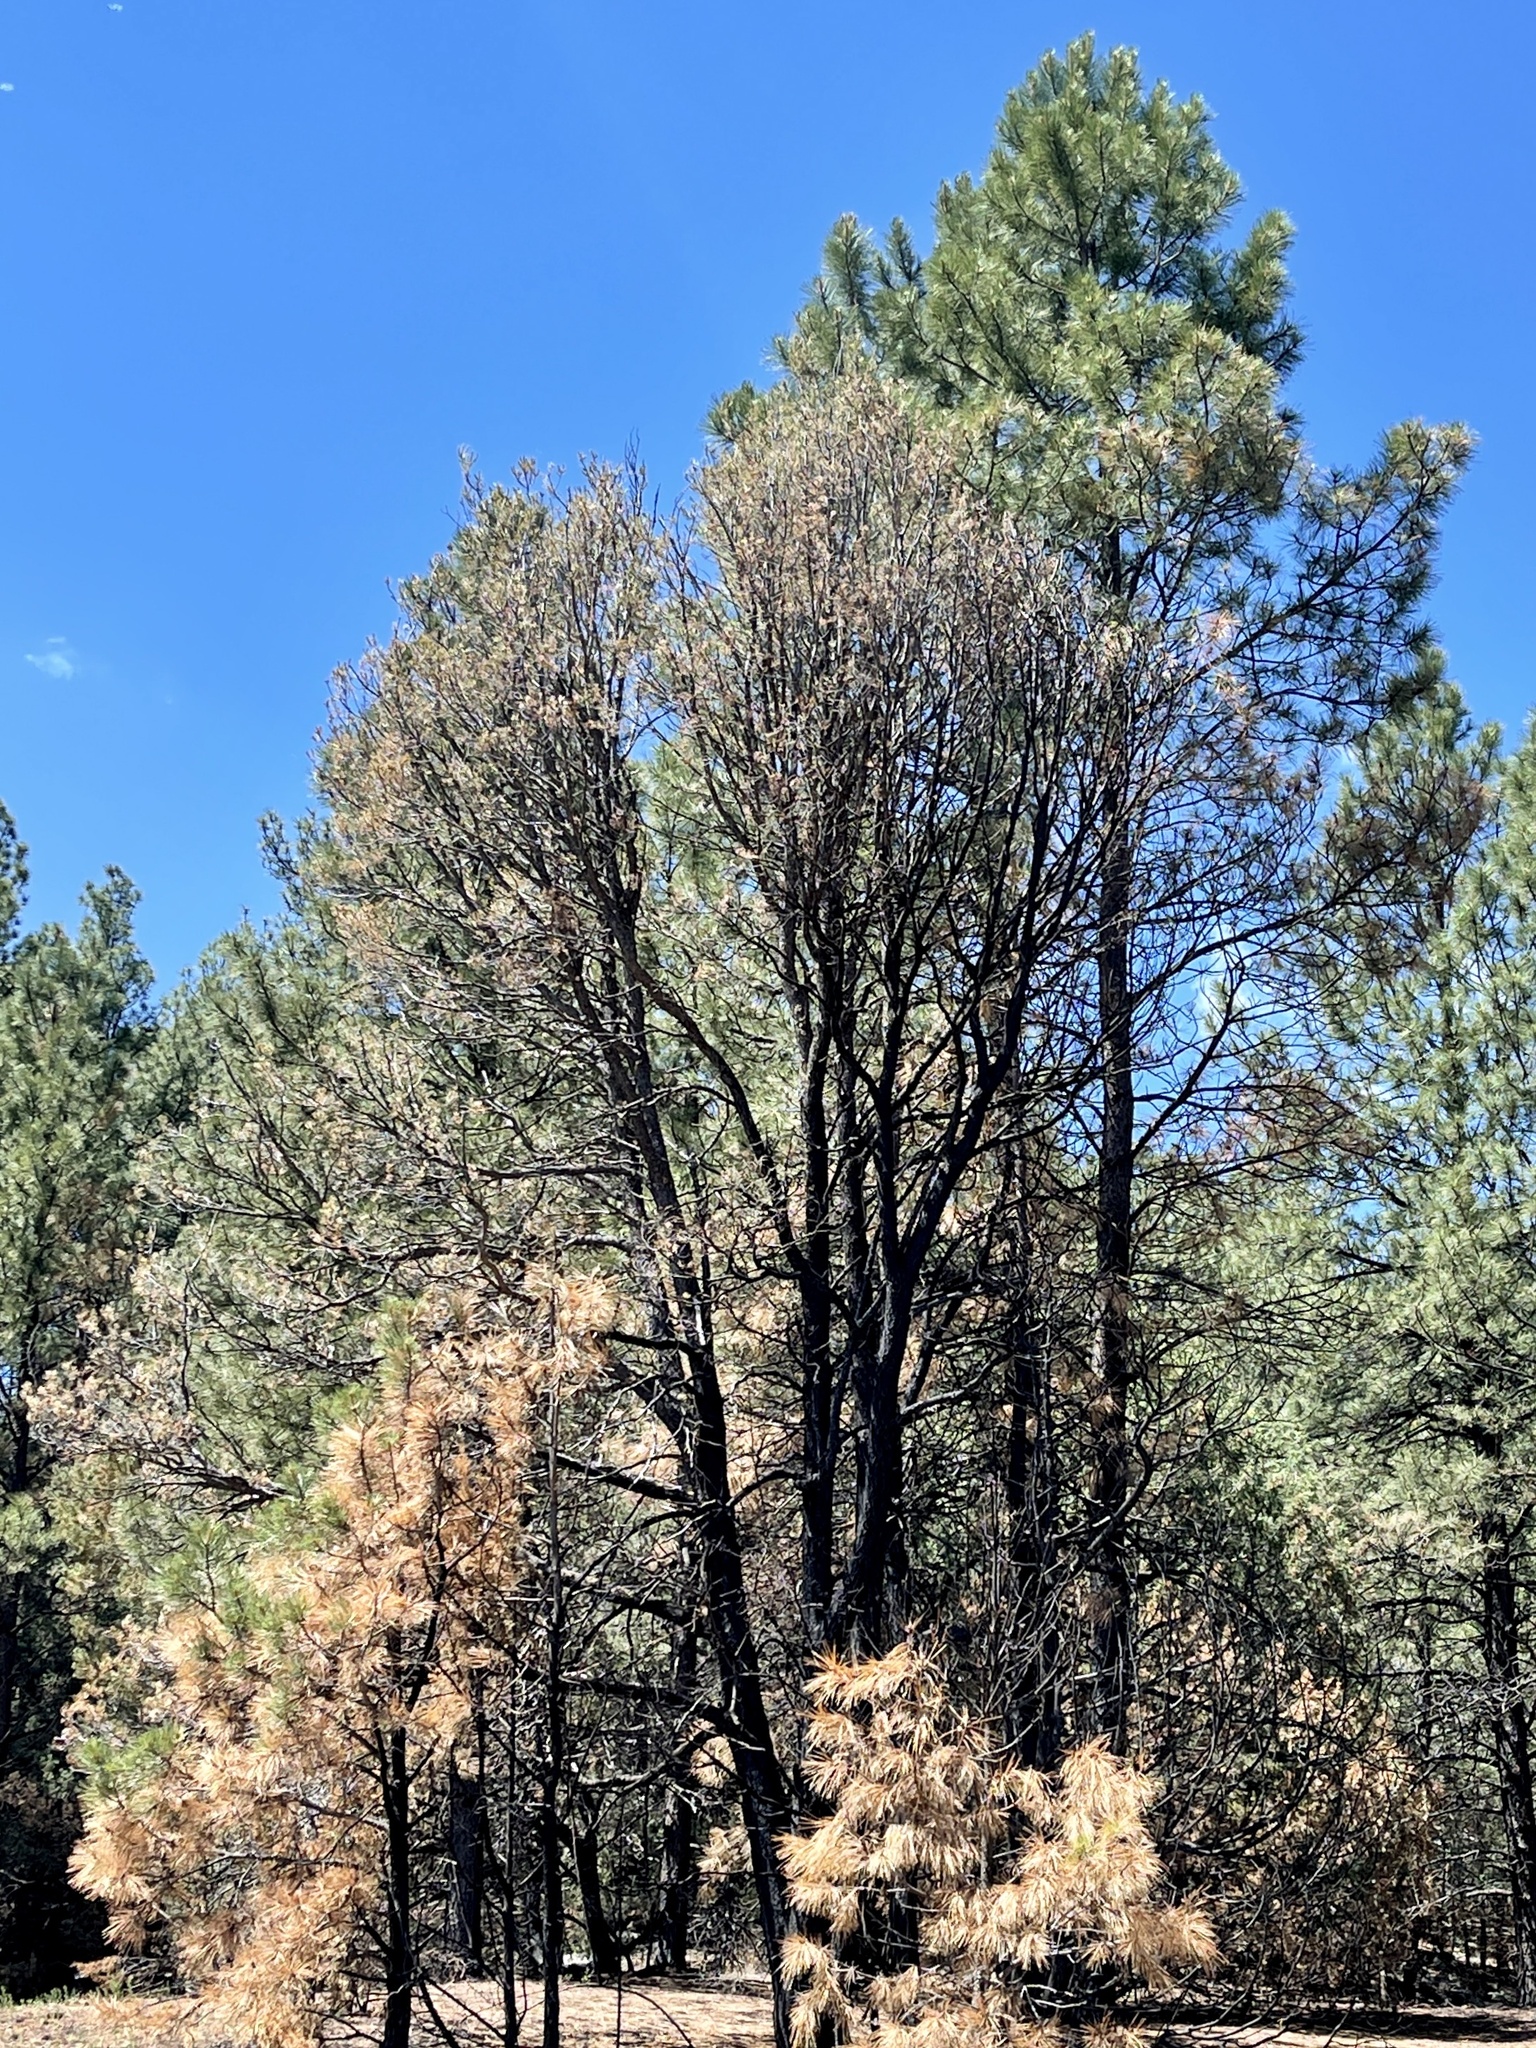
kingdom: Plantae
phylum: Tracheophyta
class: Pinopsida
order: Pinales
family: Pinaceae
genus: Pinus
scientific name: Pinus ponderosa
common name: Western yellow-pine
